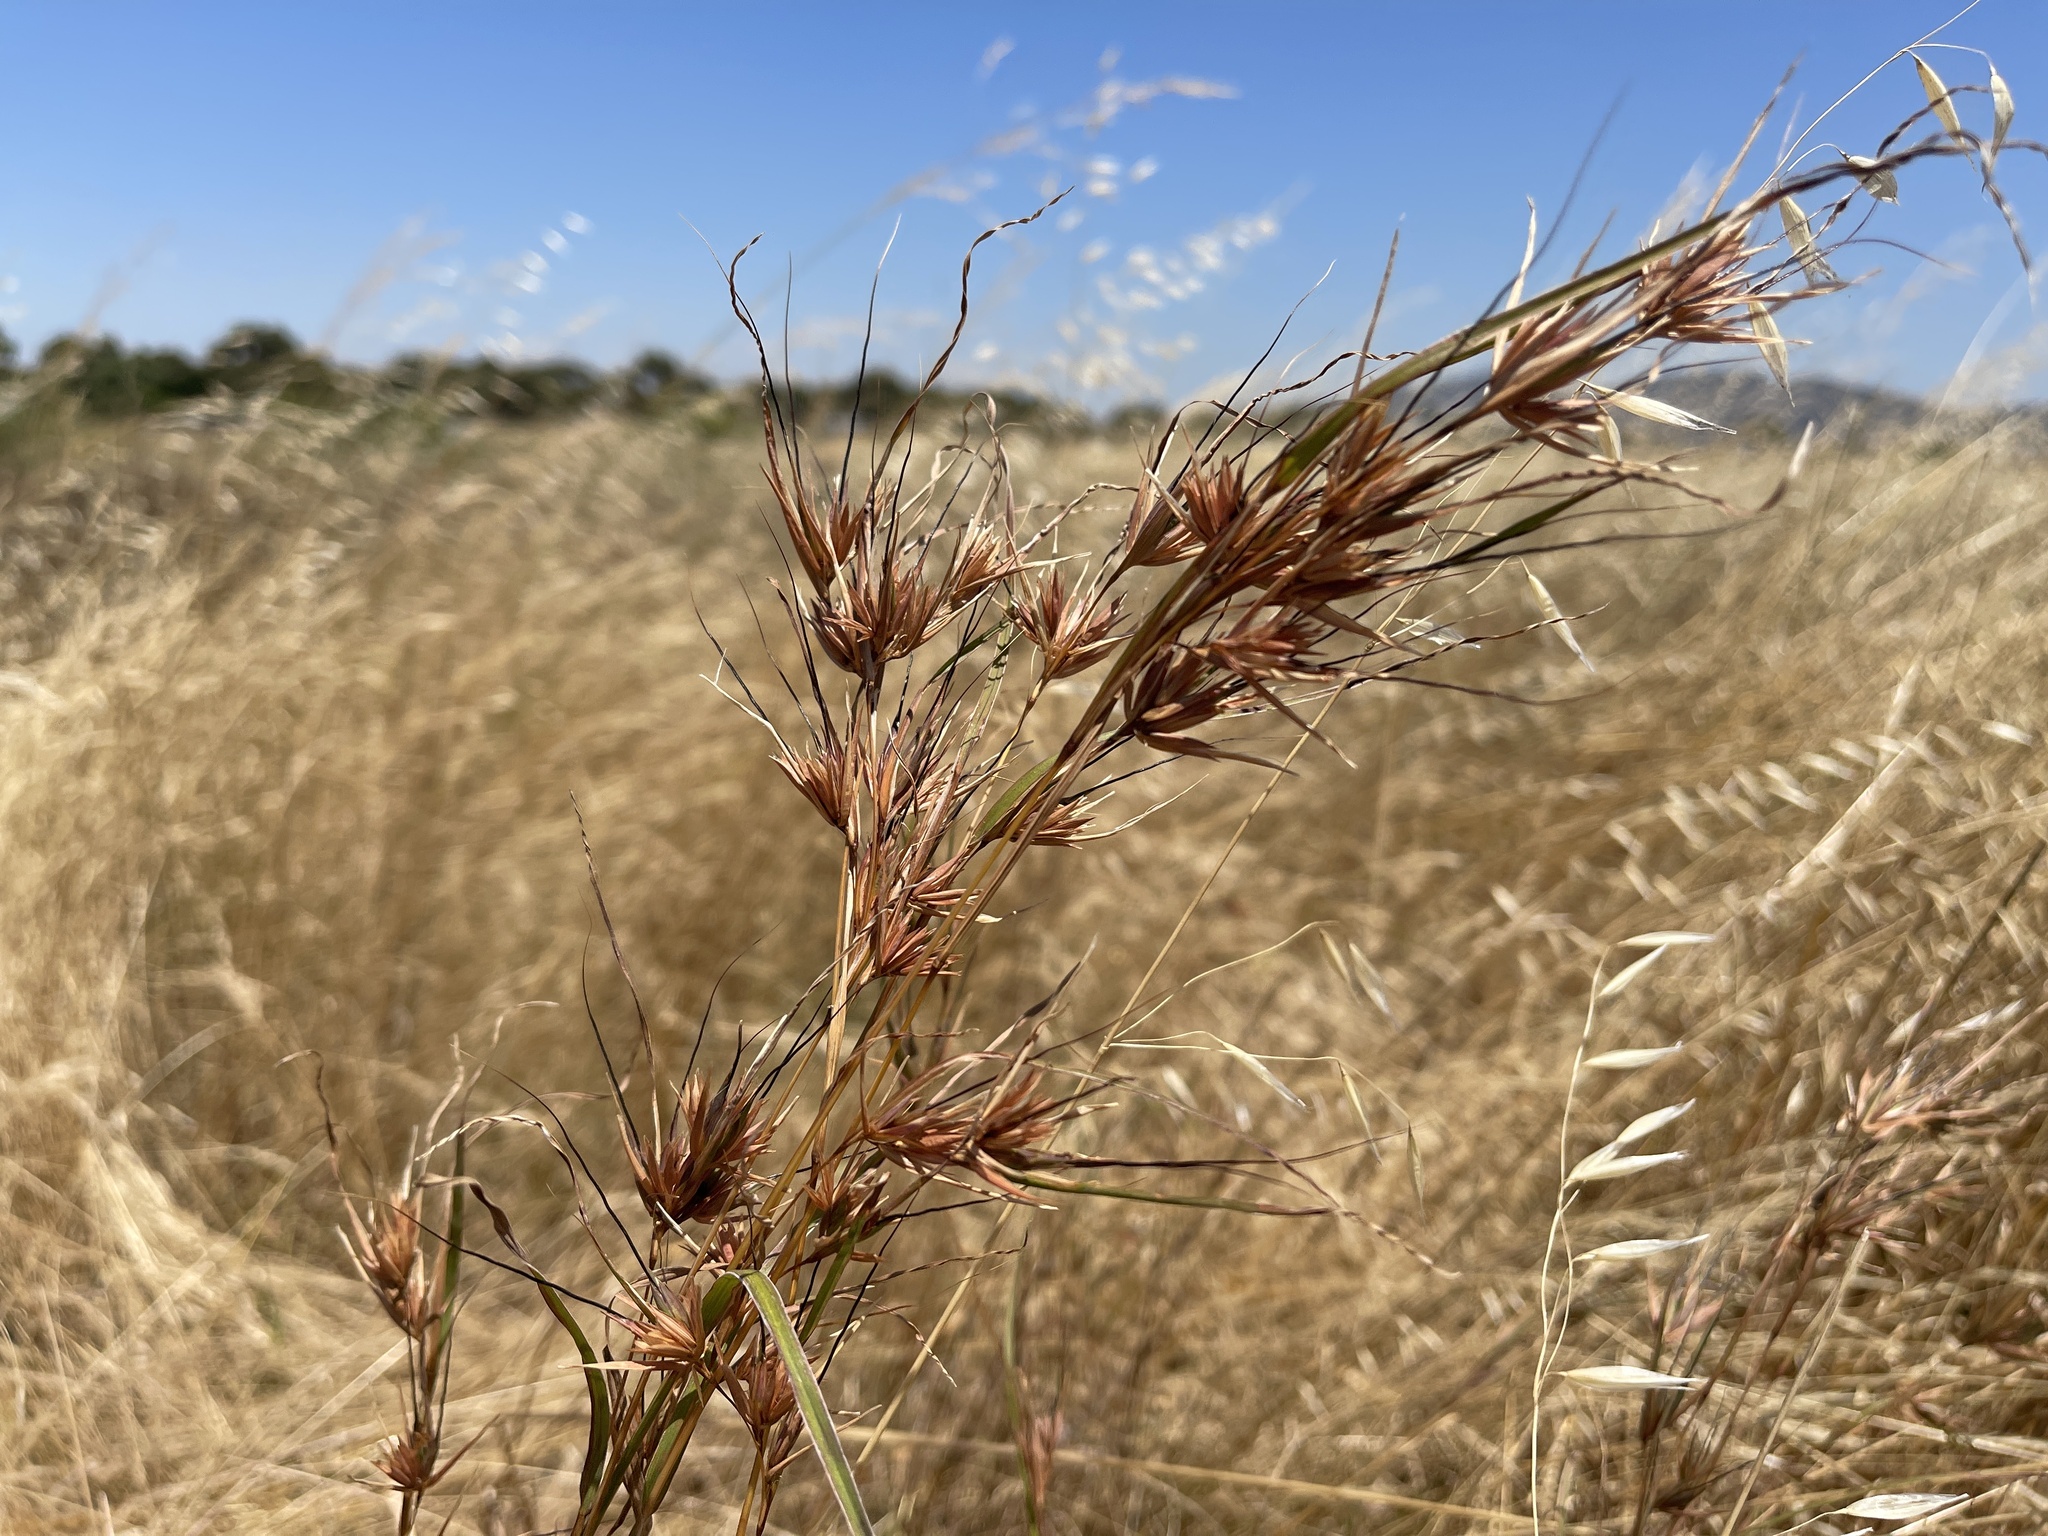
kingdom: Plantae
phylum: Tracheophyta
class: Liliopsida
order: Poales
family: Poaceae
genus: Themeda
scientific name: Themeda triandra
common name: Kangaroo grass
